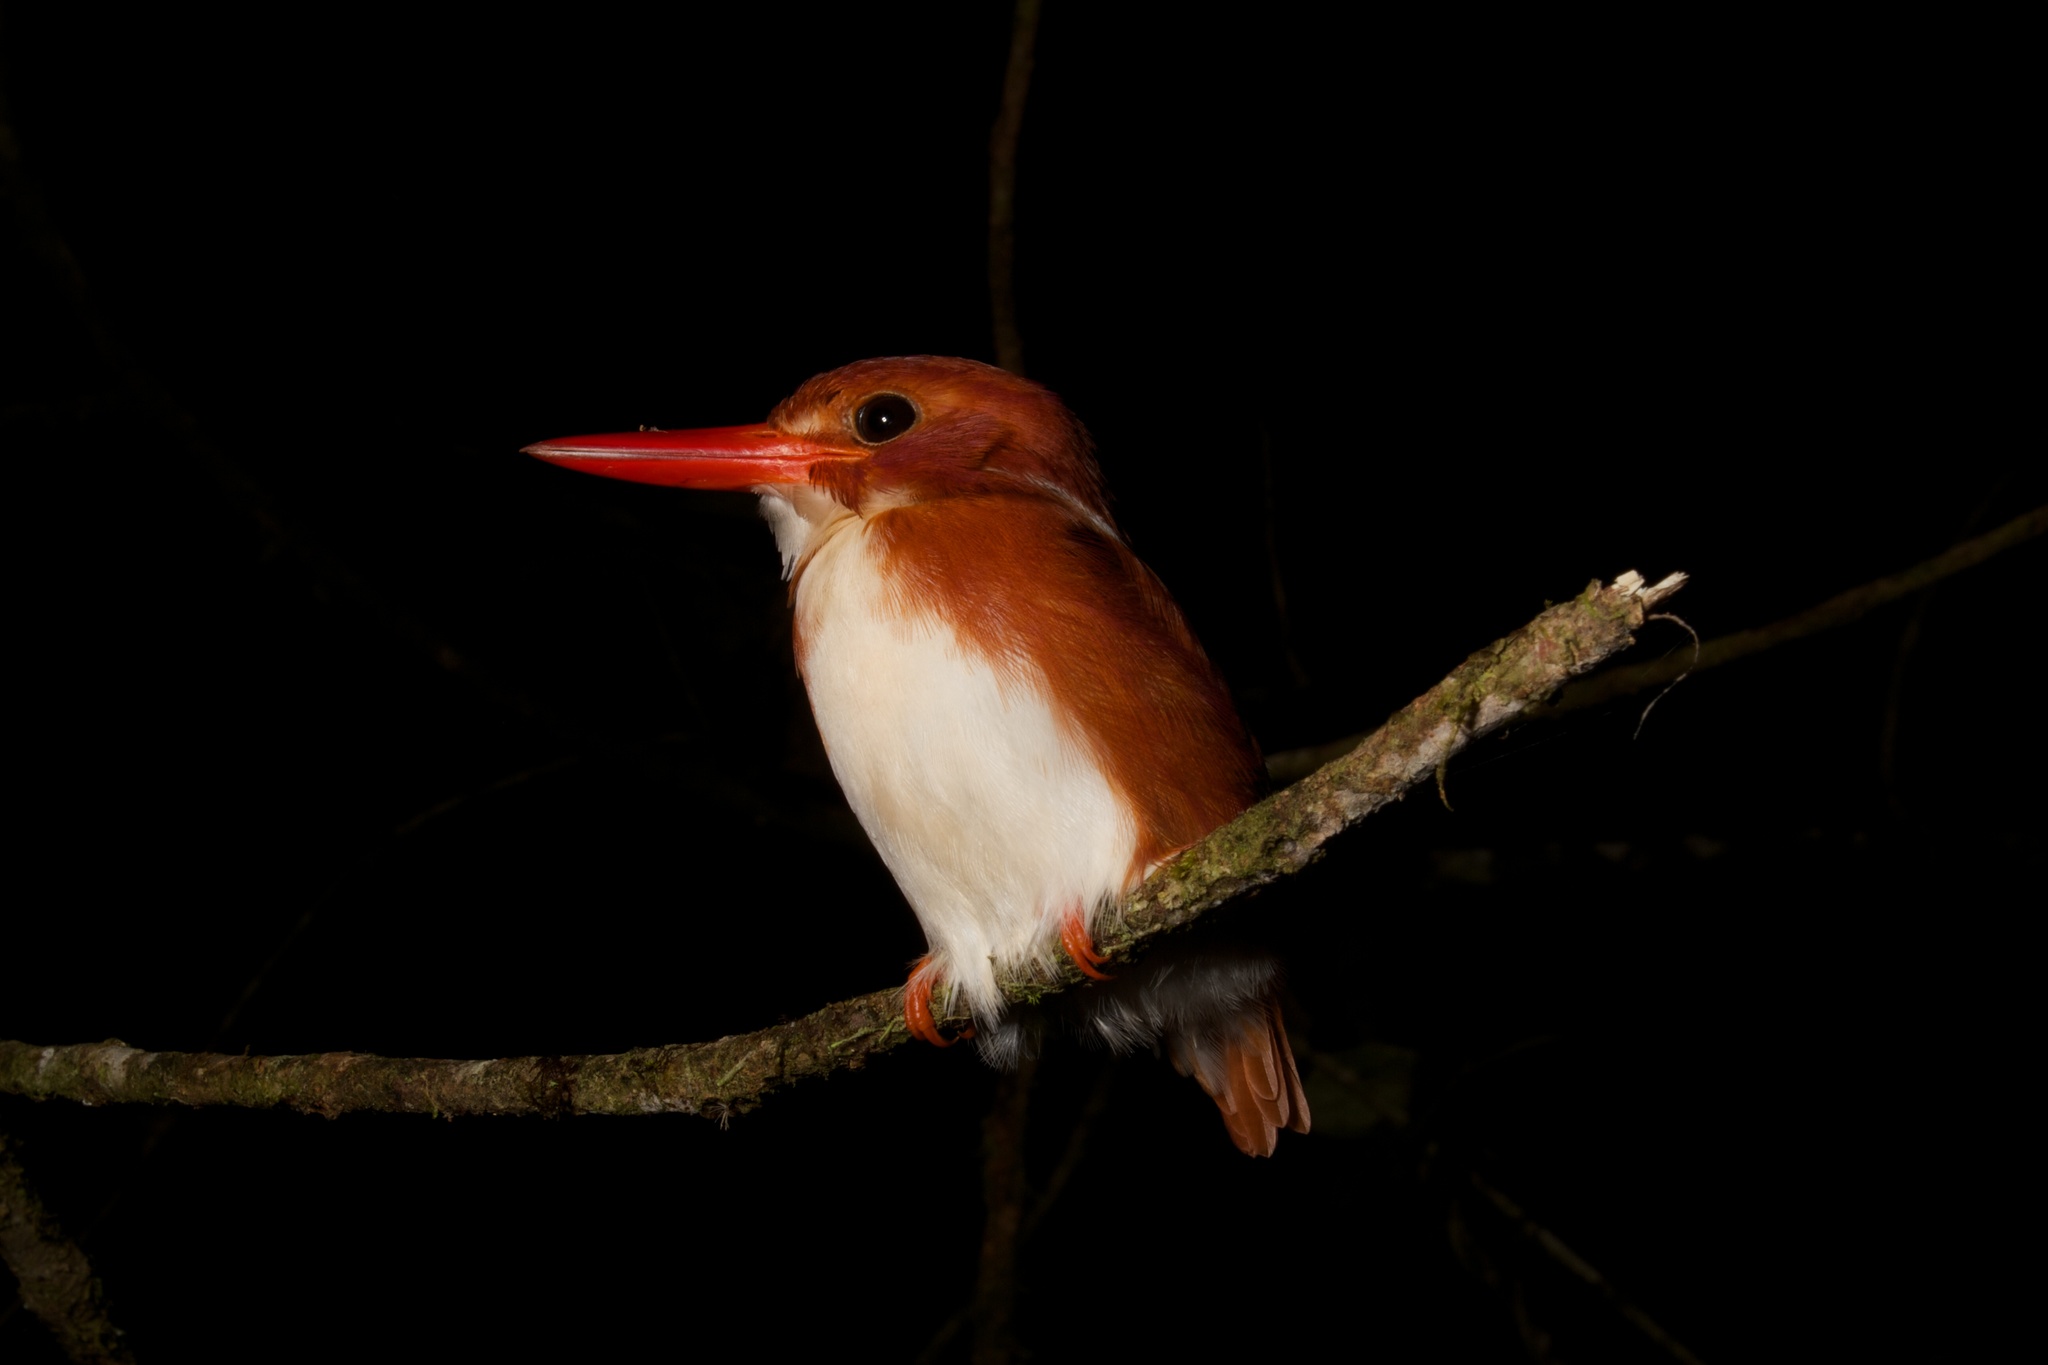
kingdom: Animalia
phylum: Chordata
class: Aves
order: Coraciiformes
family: Alcedinidae
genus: Corythornis
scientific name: Corythornis madagascariensis
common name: Madagascar pygmy-kingfisher
